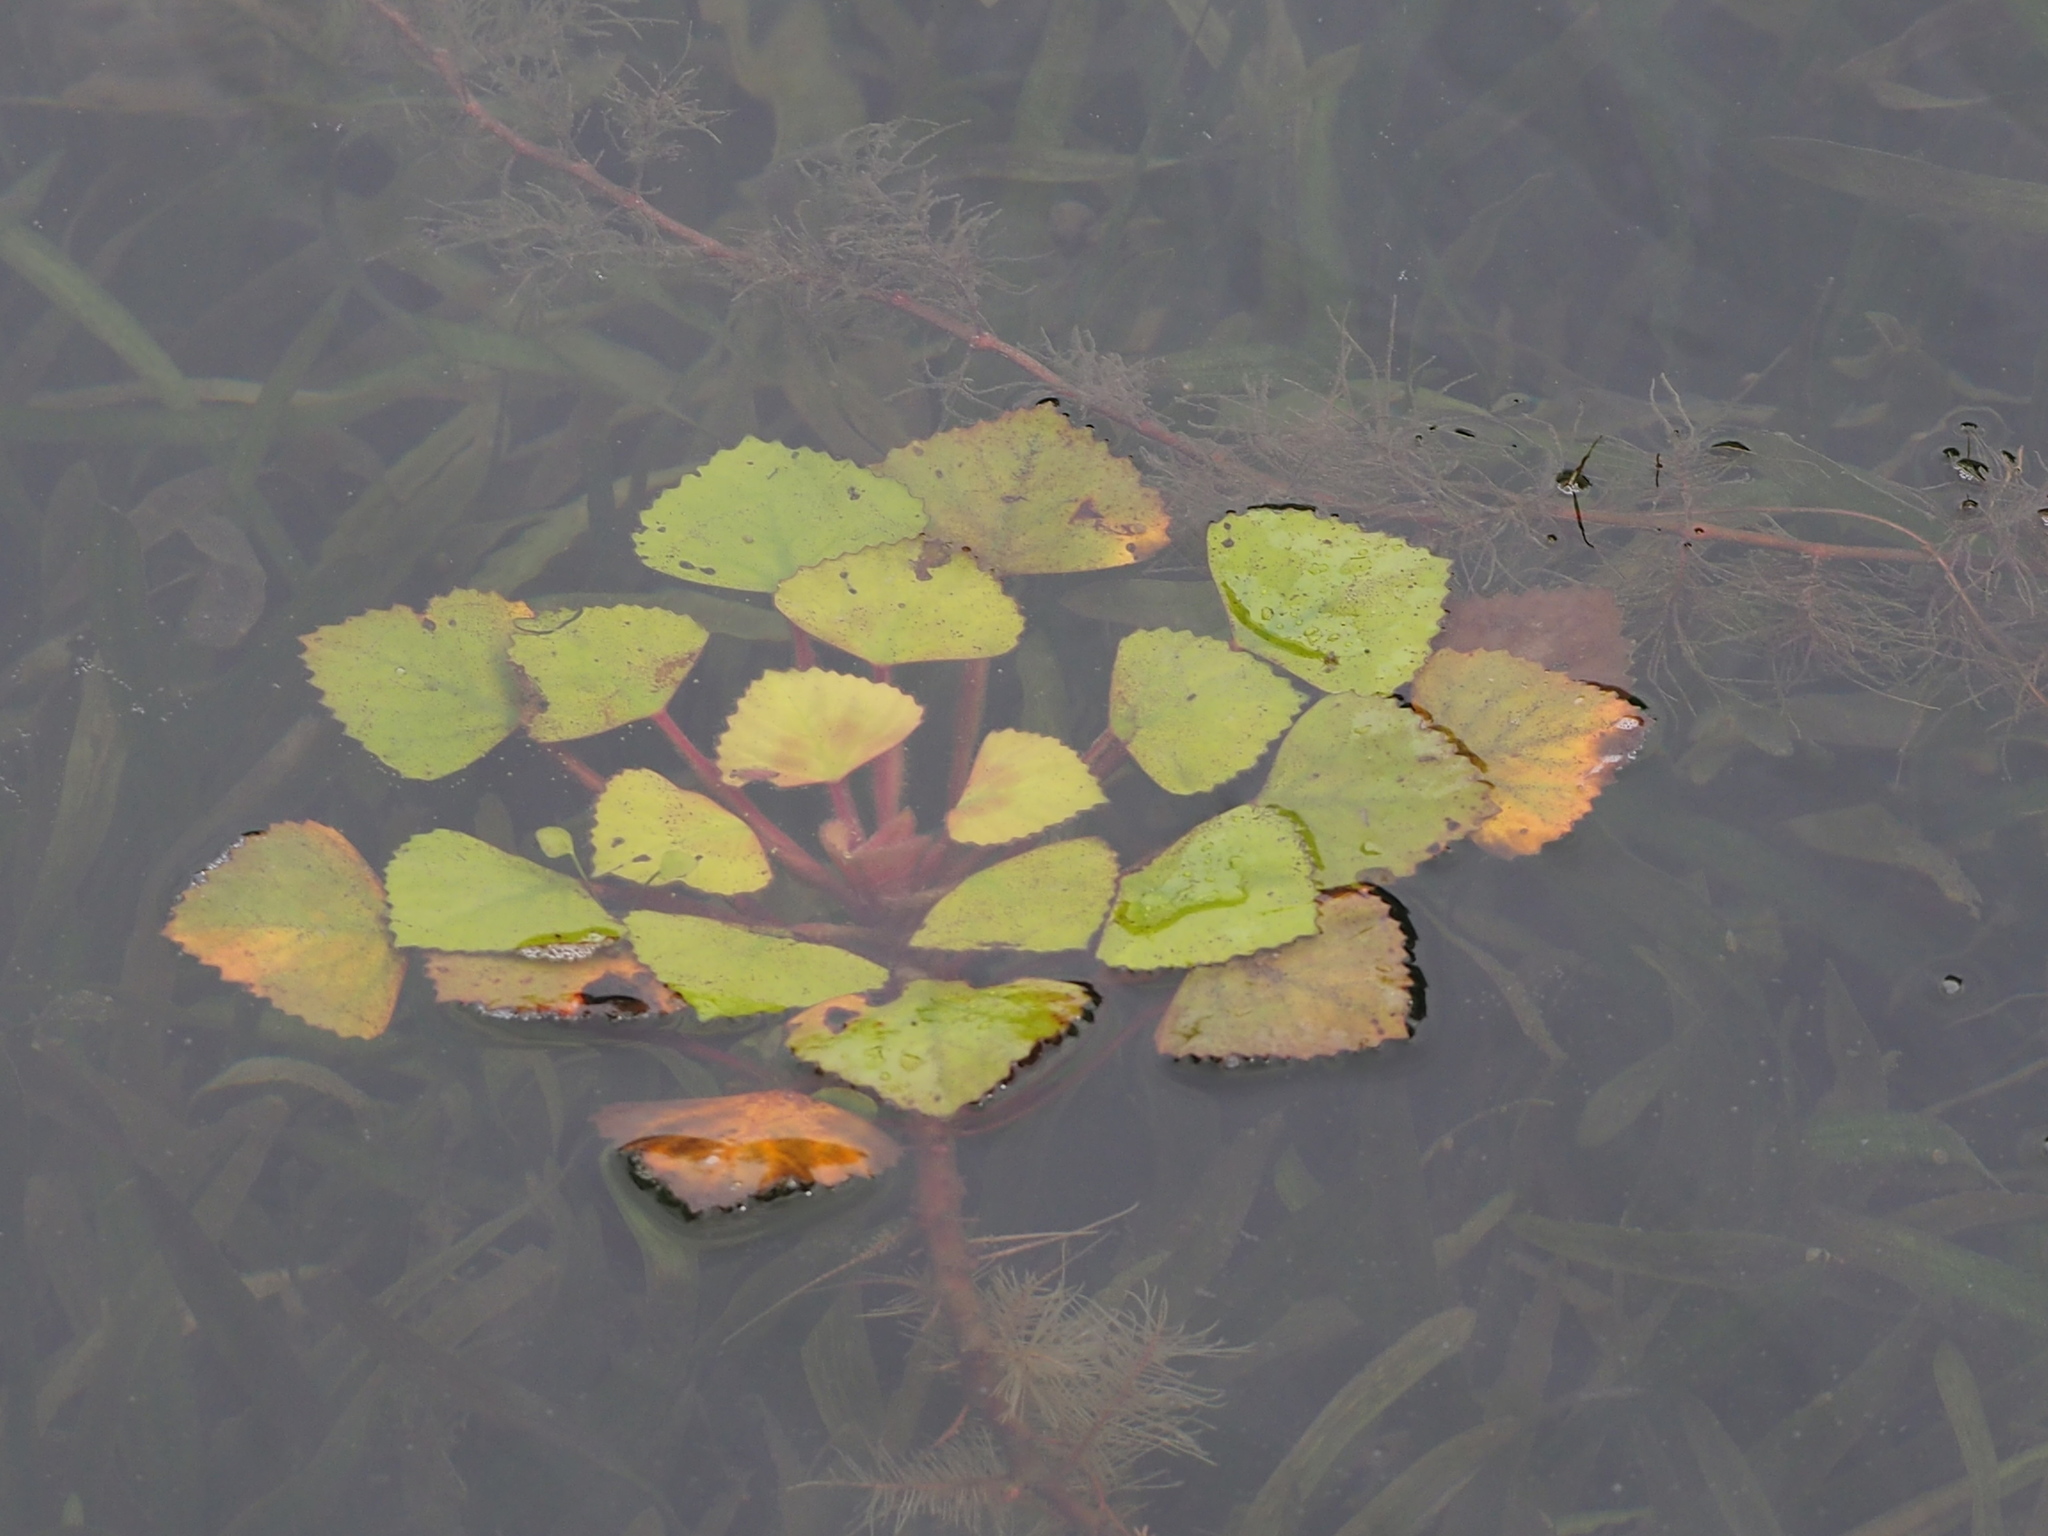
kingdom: Plantae
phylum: Tracheophyta
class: Magnoliopsida
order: Myrtales
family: Lythraceae
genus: Trapa
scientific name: Trapa natans
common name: Water chestnut
